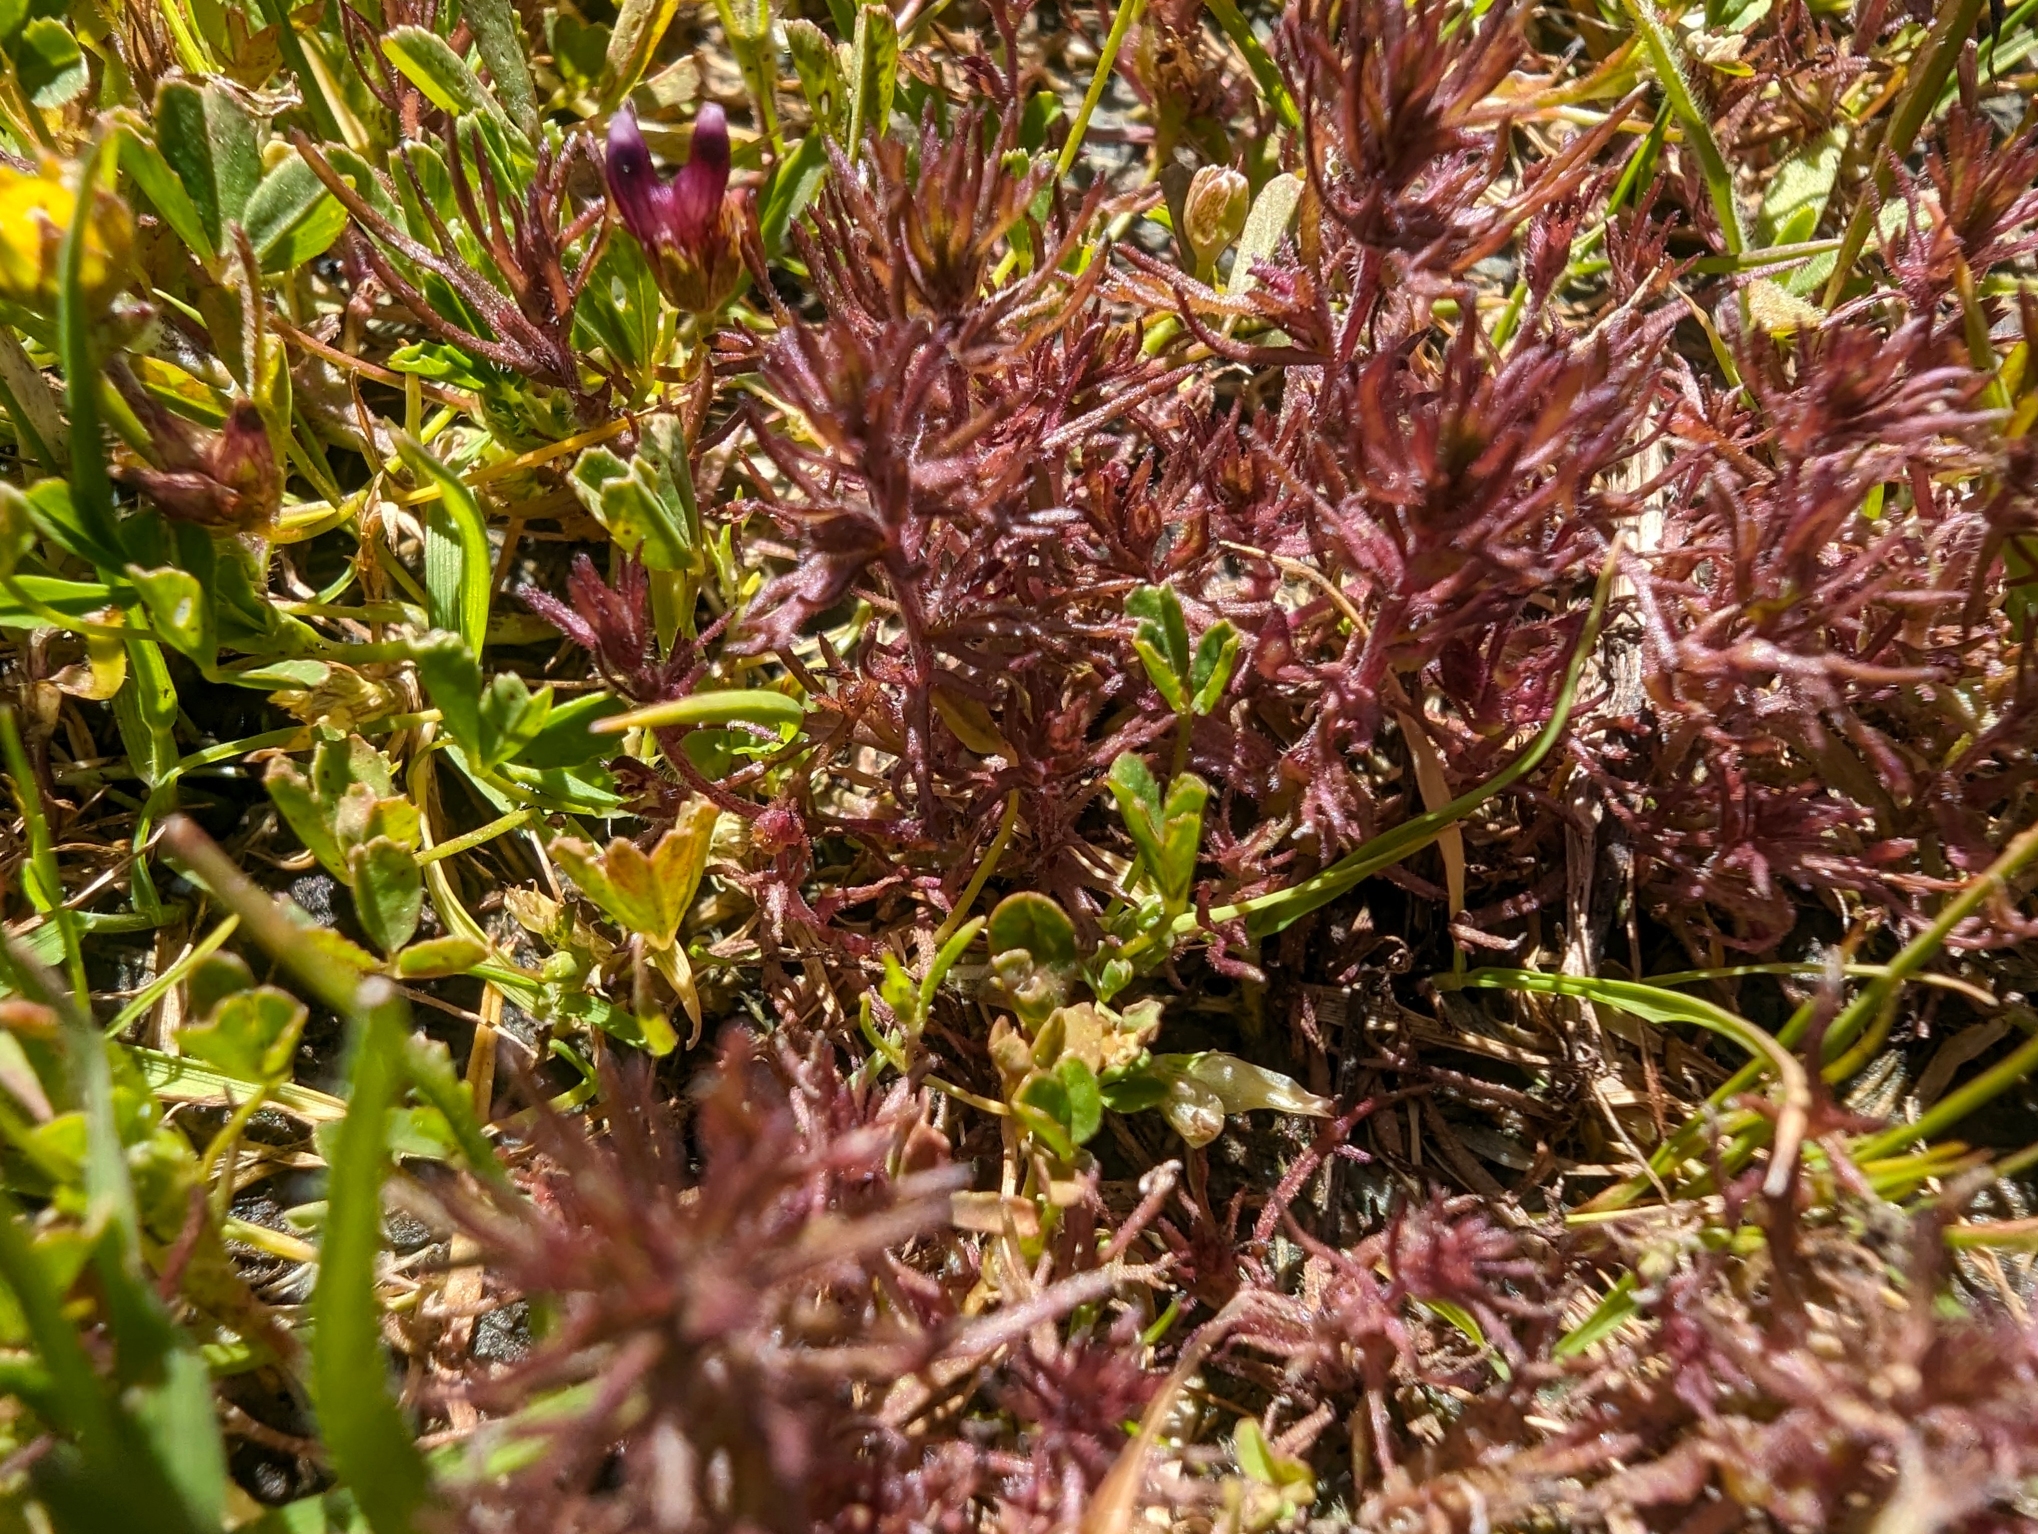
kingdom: Plantae
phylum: Tracheophyta
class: Magnoliopsida
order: Lamiales
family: Orobanchaceae
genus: Triphysaria
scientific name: Triphysaria pusilla
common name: Dwarf false owl-clover
